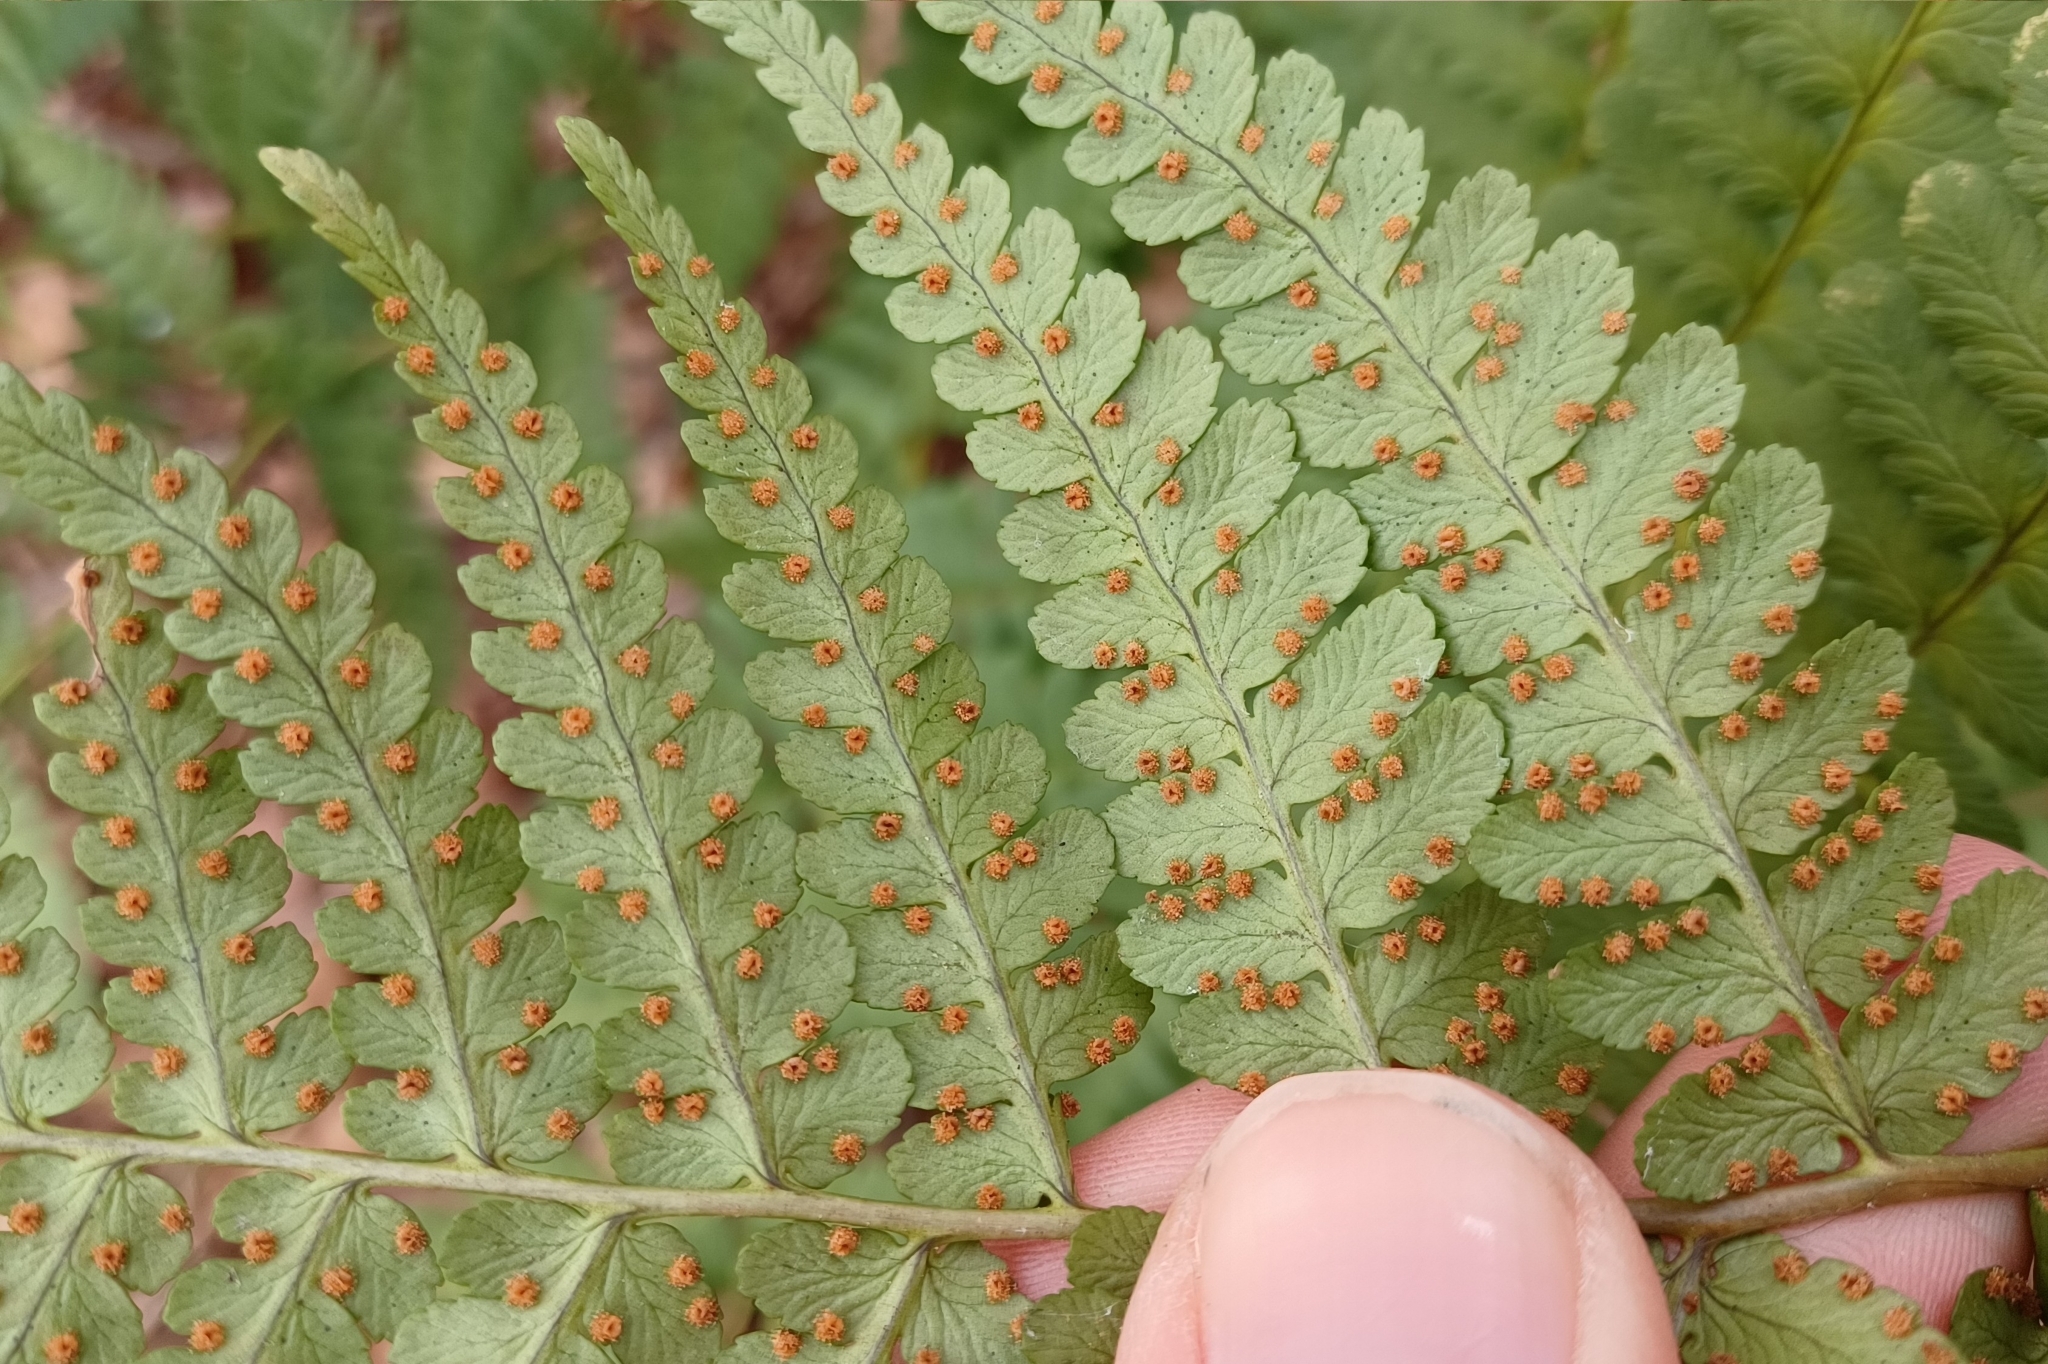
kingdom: Plantae
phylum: Tracheophyta
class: Polypodiopsida
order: Polypodiales
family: Dryopteridaceae
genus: Dryopteris
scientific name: Dryopteris marginalis
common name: Marginal wood fern
